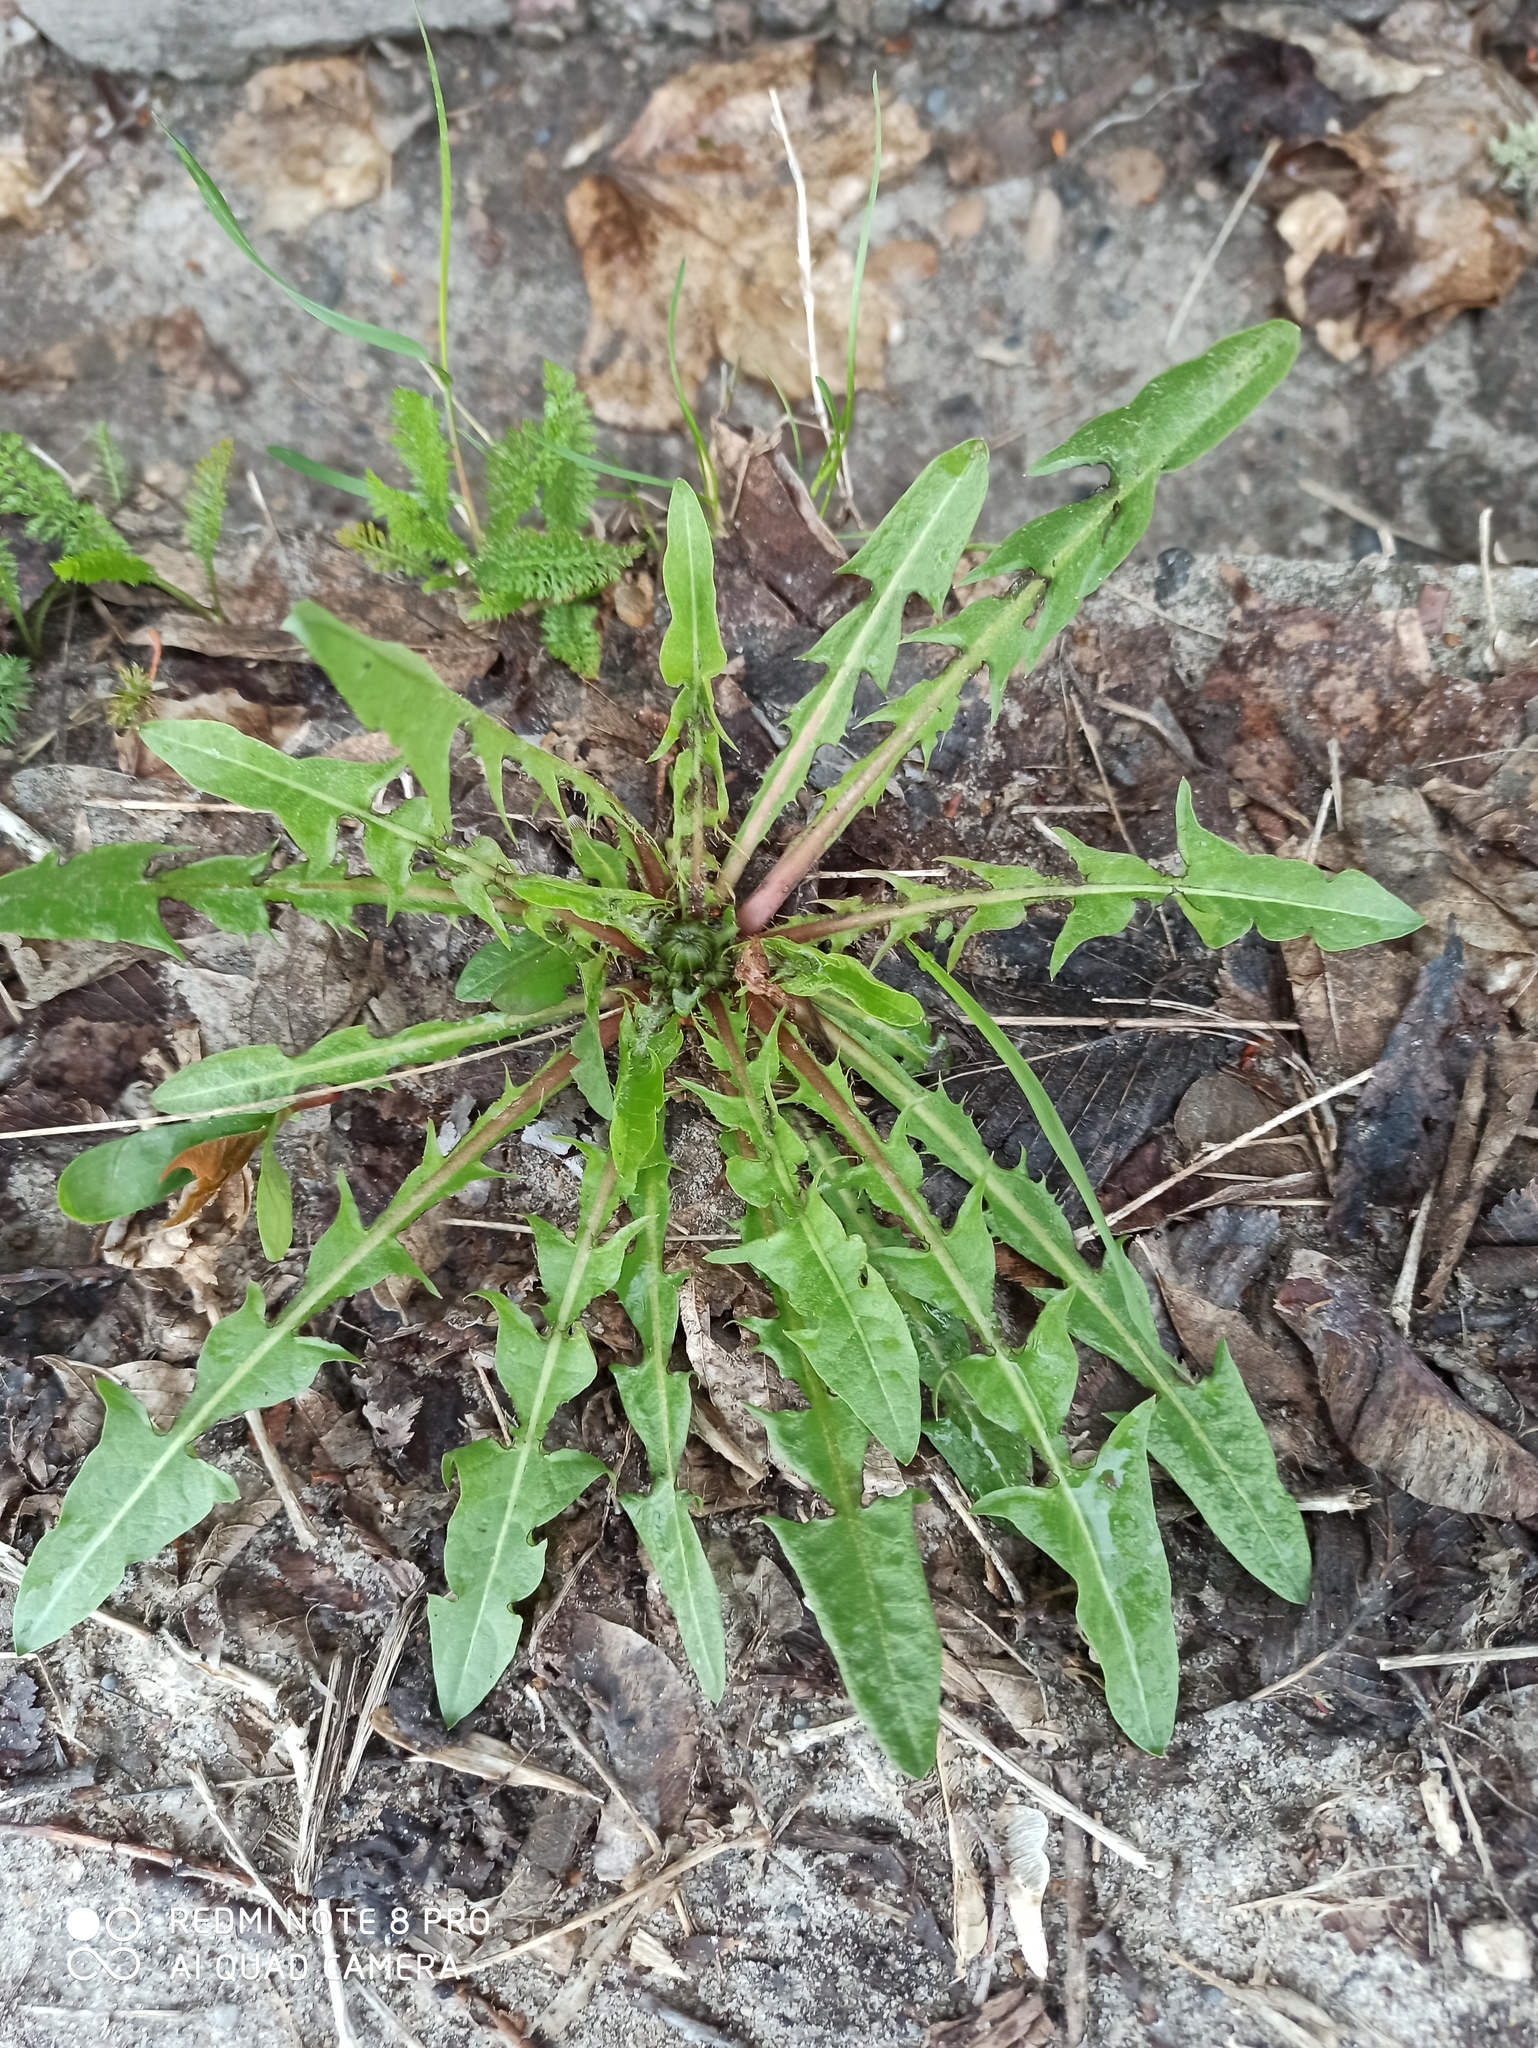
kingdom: Plantae
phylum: Tracheophyta
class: Magnoliopsida
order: Asterales
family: Asteraceae
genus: Taraxacum
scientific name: Taraxacum officinale
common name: Common dandelion
